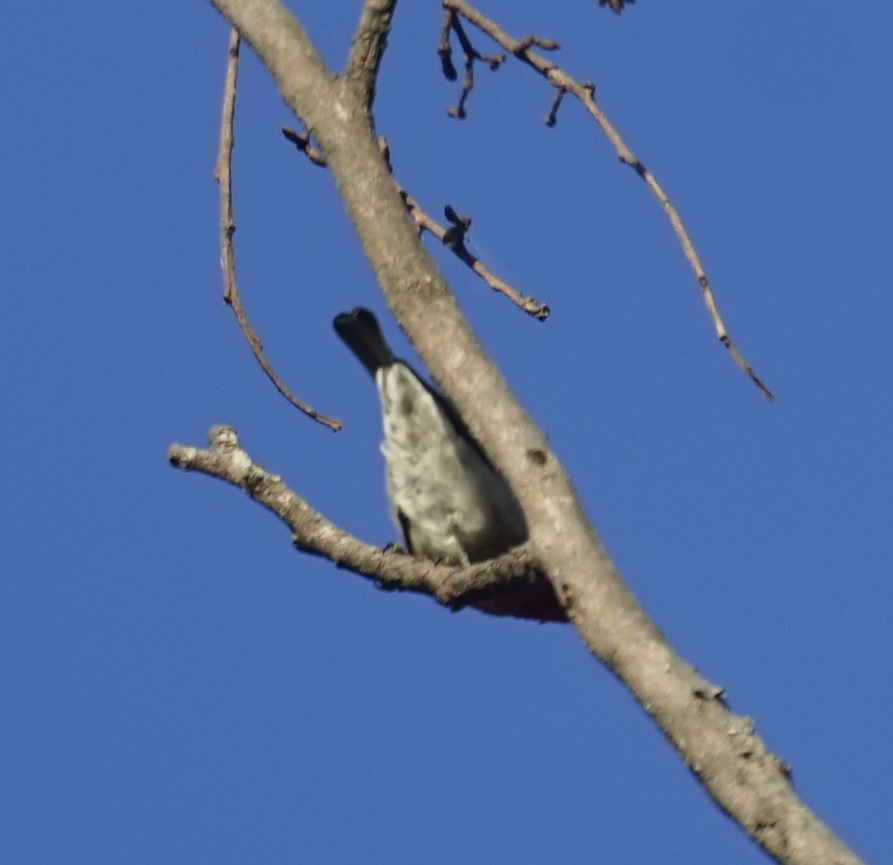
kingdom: Animalia
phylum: Chordata
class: Aves
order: Passeriformes
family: Meliphagidae
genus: Anthochaera
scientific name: Anthochaera carunculata
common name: Red wattlebird
